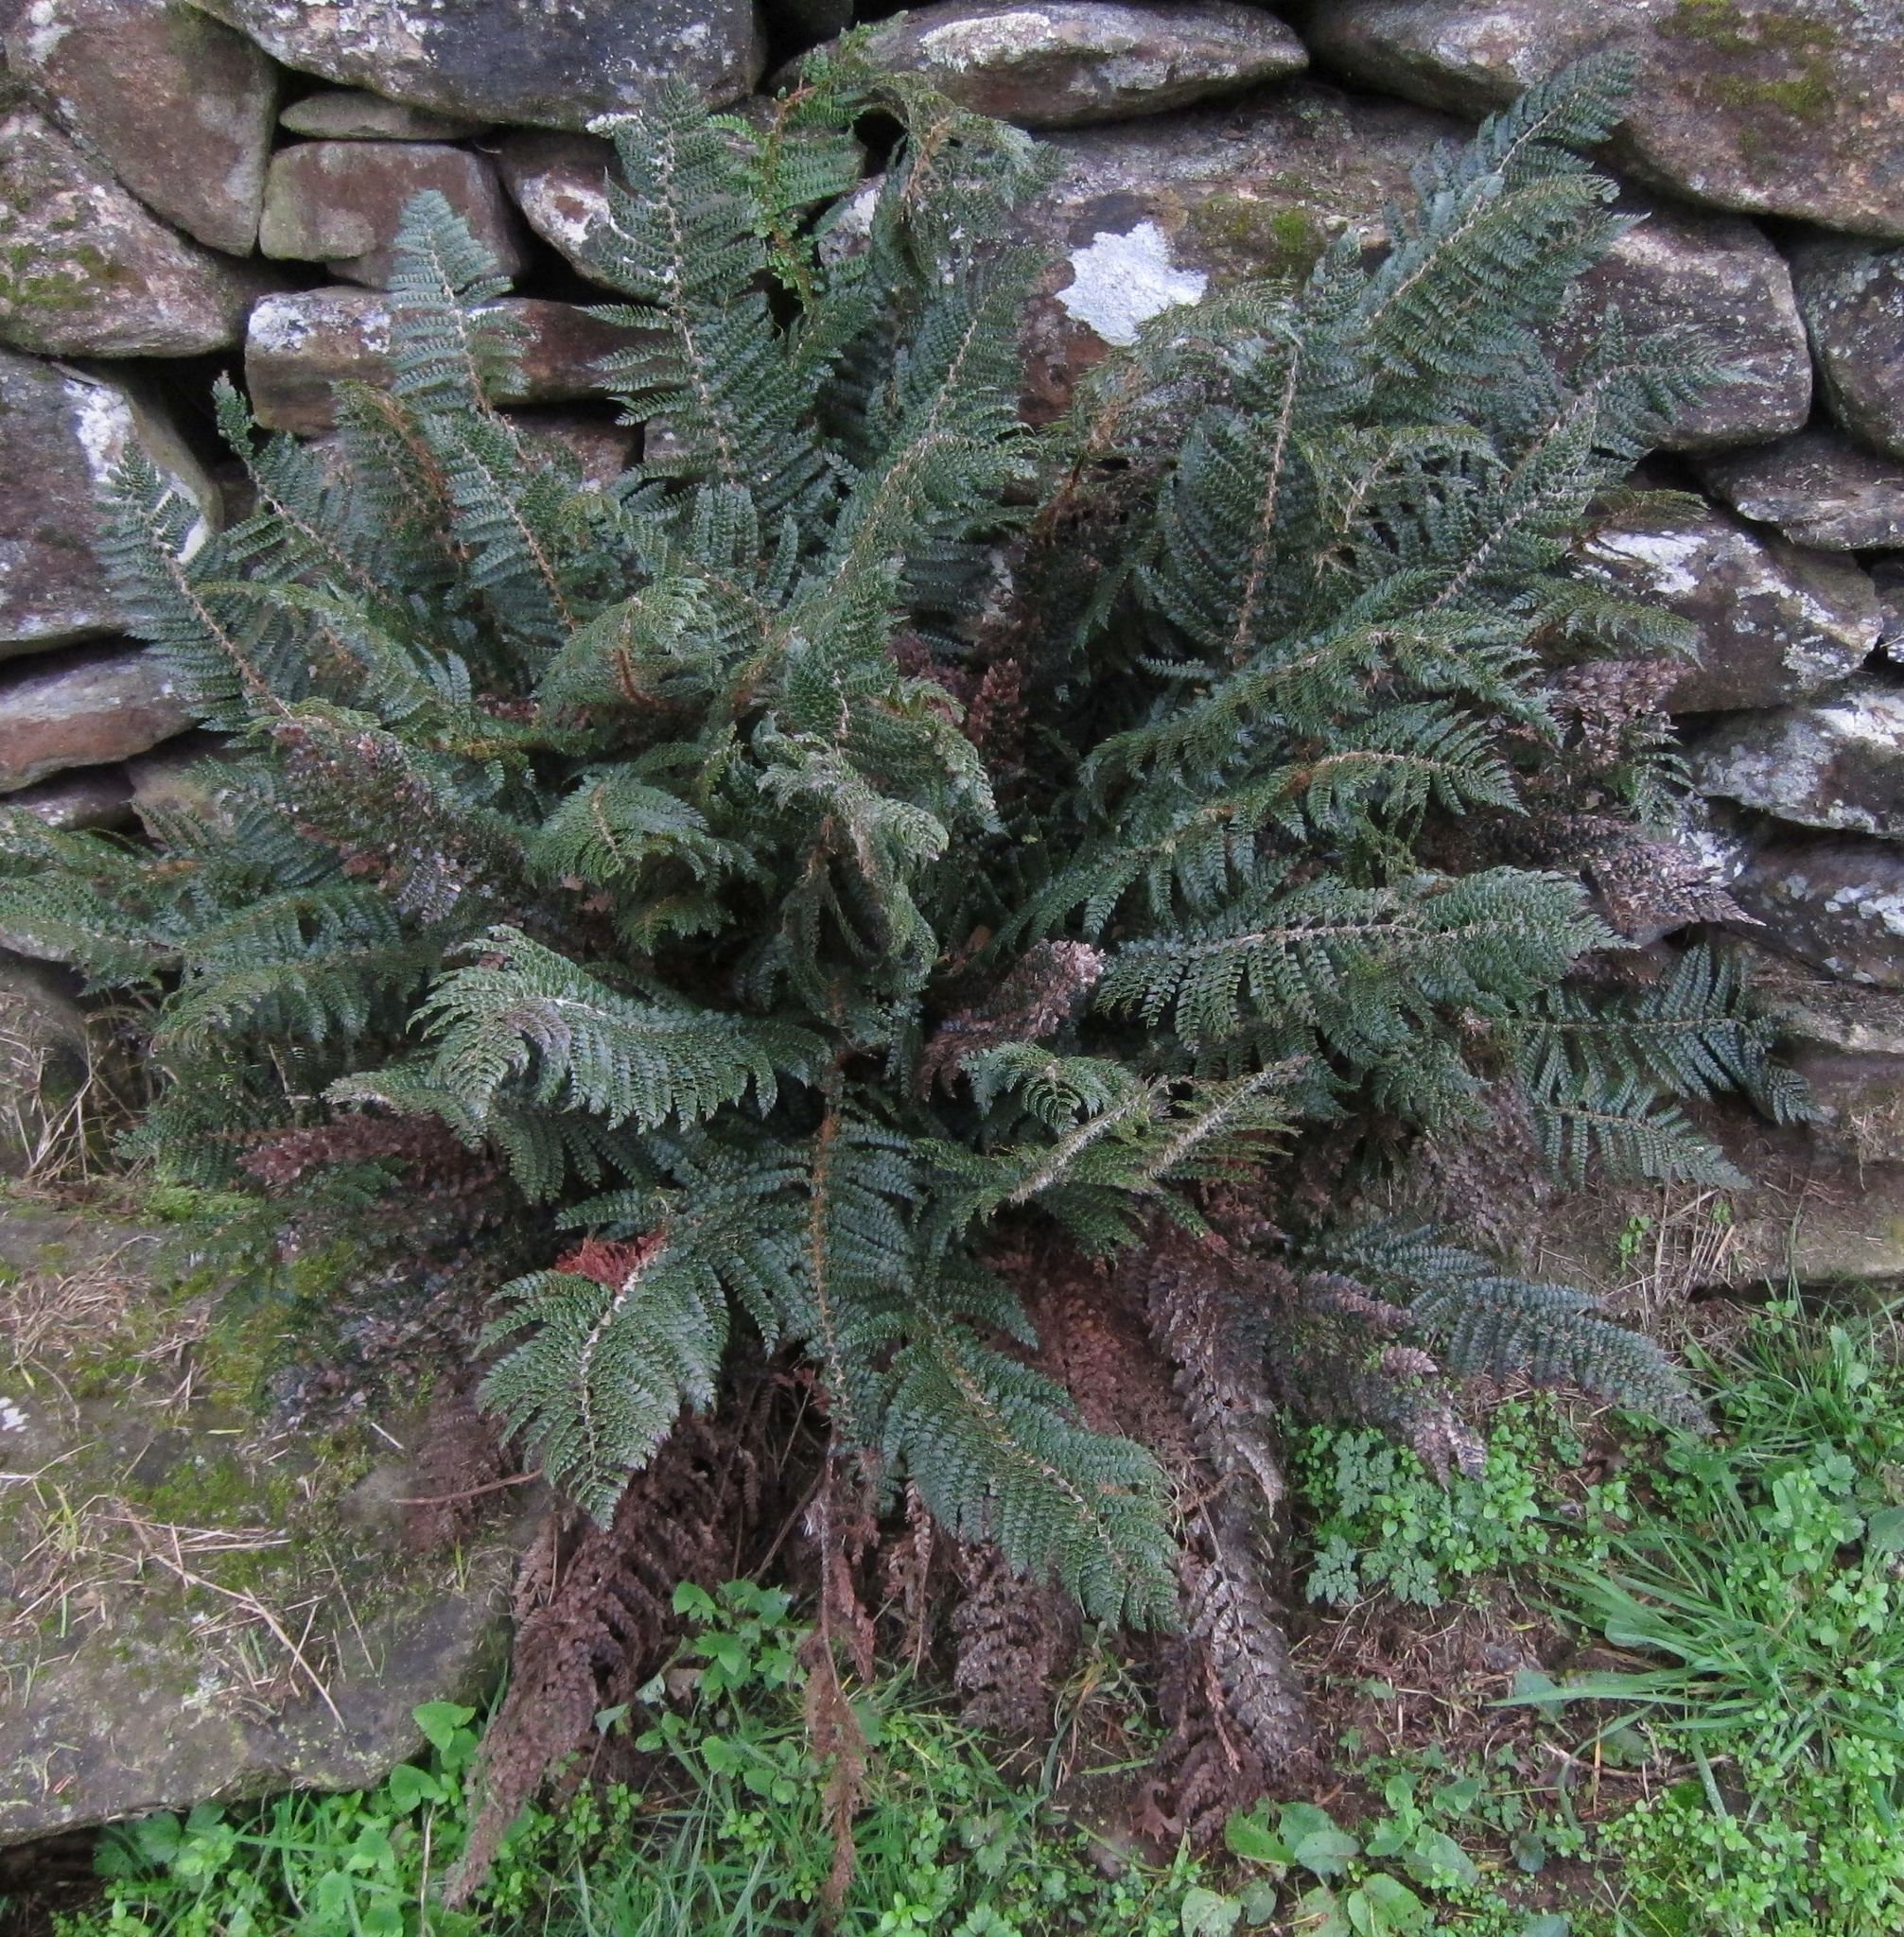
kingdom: Plantae
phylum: Tracheophyta
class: Polypodiopsida
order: Polypodiales
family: Dryopteridaceae
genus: Polystichum
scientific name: Polystichum vestitum
